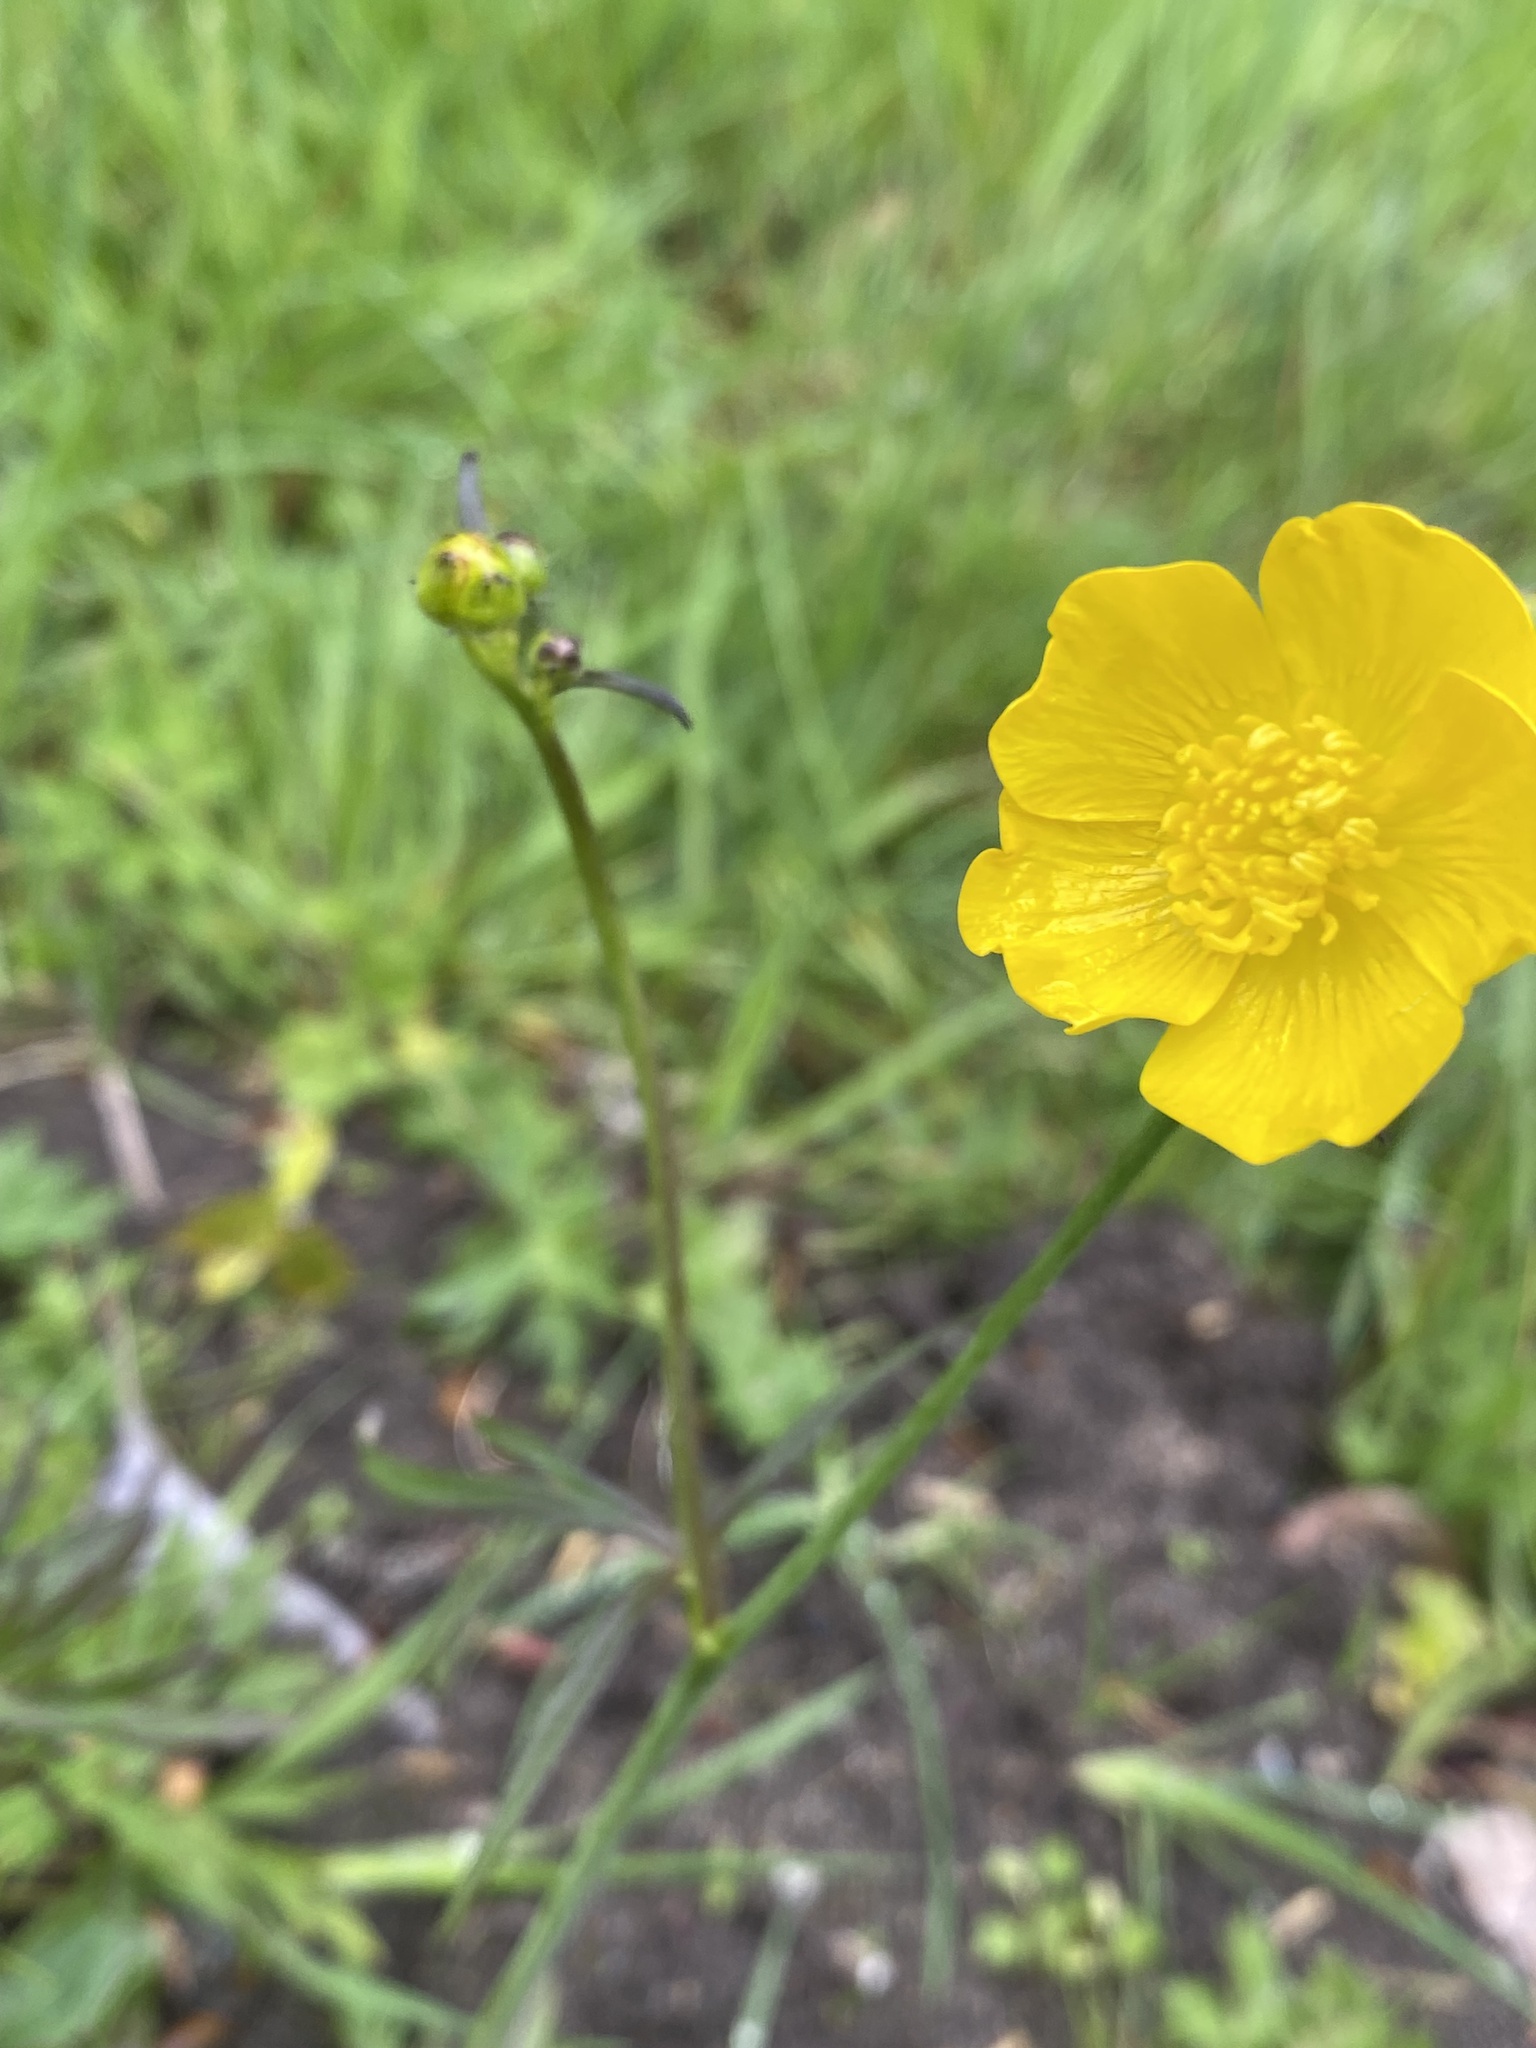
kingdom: Plantae
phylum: Tracheophyta
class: Magnoliopsida
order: Ranunculales
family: Ranunculaceae
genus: Ranunculus
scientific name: Ranunculus acris
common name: Meadow buttercup
